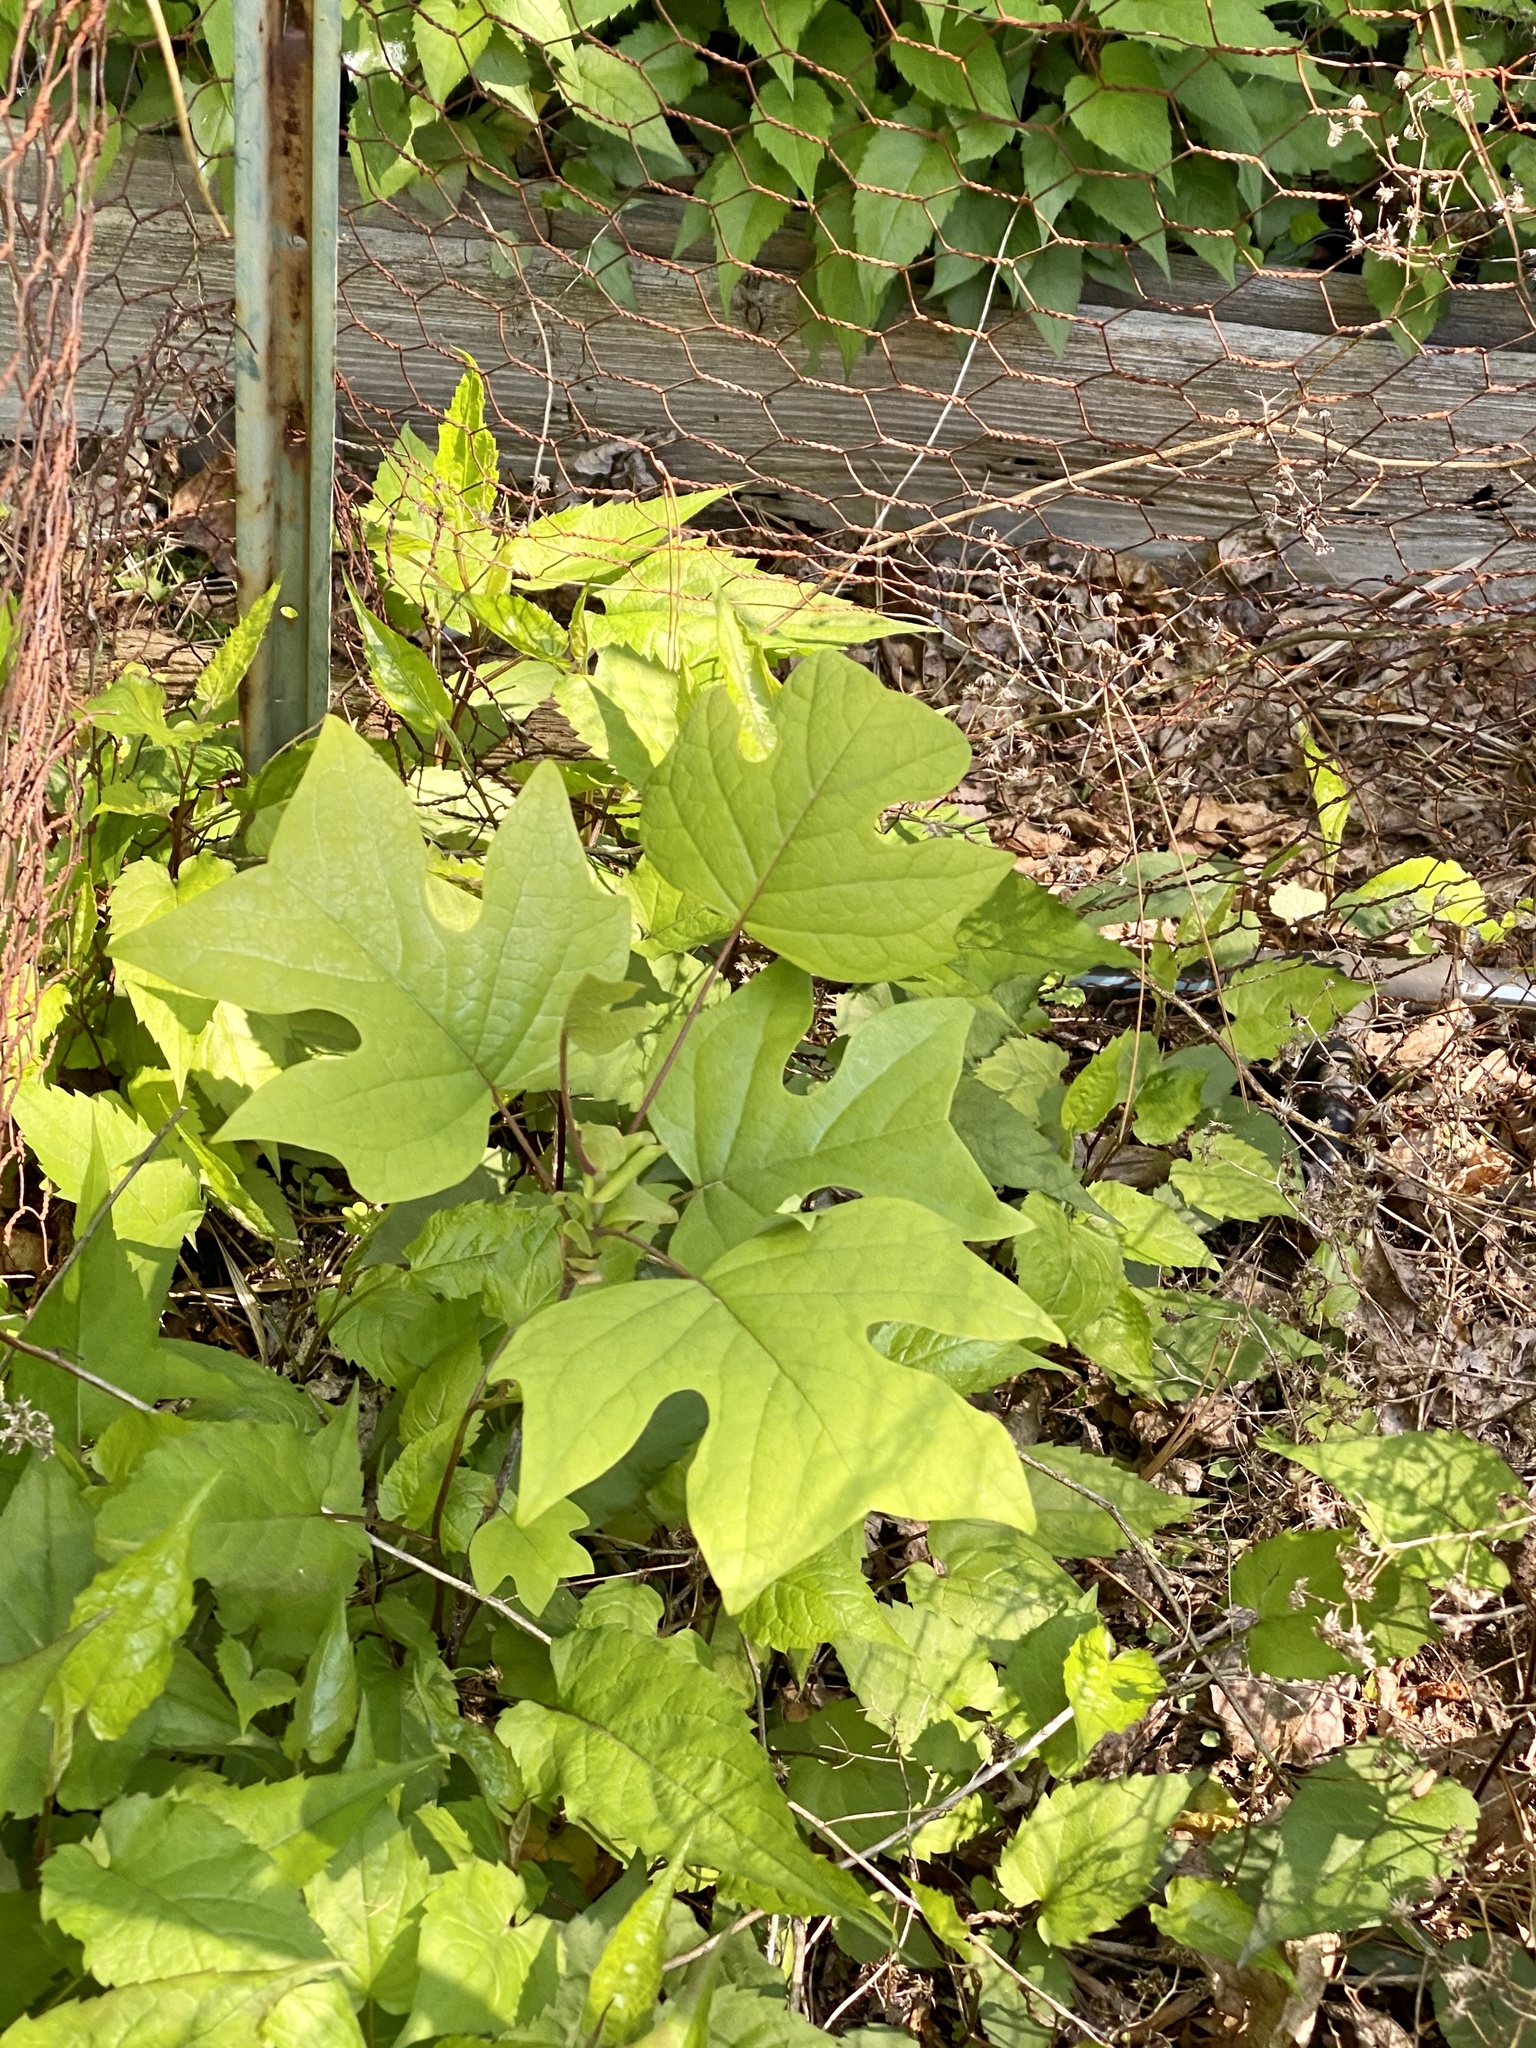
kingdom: Plantae
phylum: Tracheophyta
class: Magnoliopsida
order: Magnoliales
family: Magnoliaceae
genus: Liriodendron
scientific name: Liriodendron tulipifera
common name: Tulip tree
